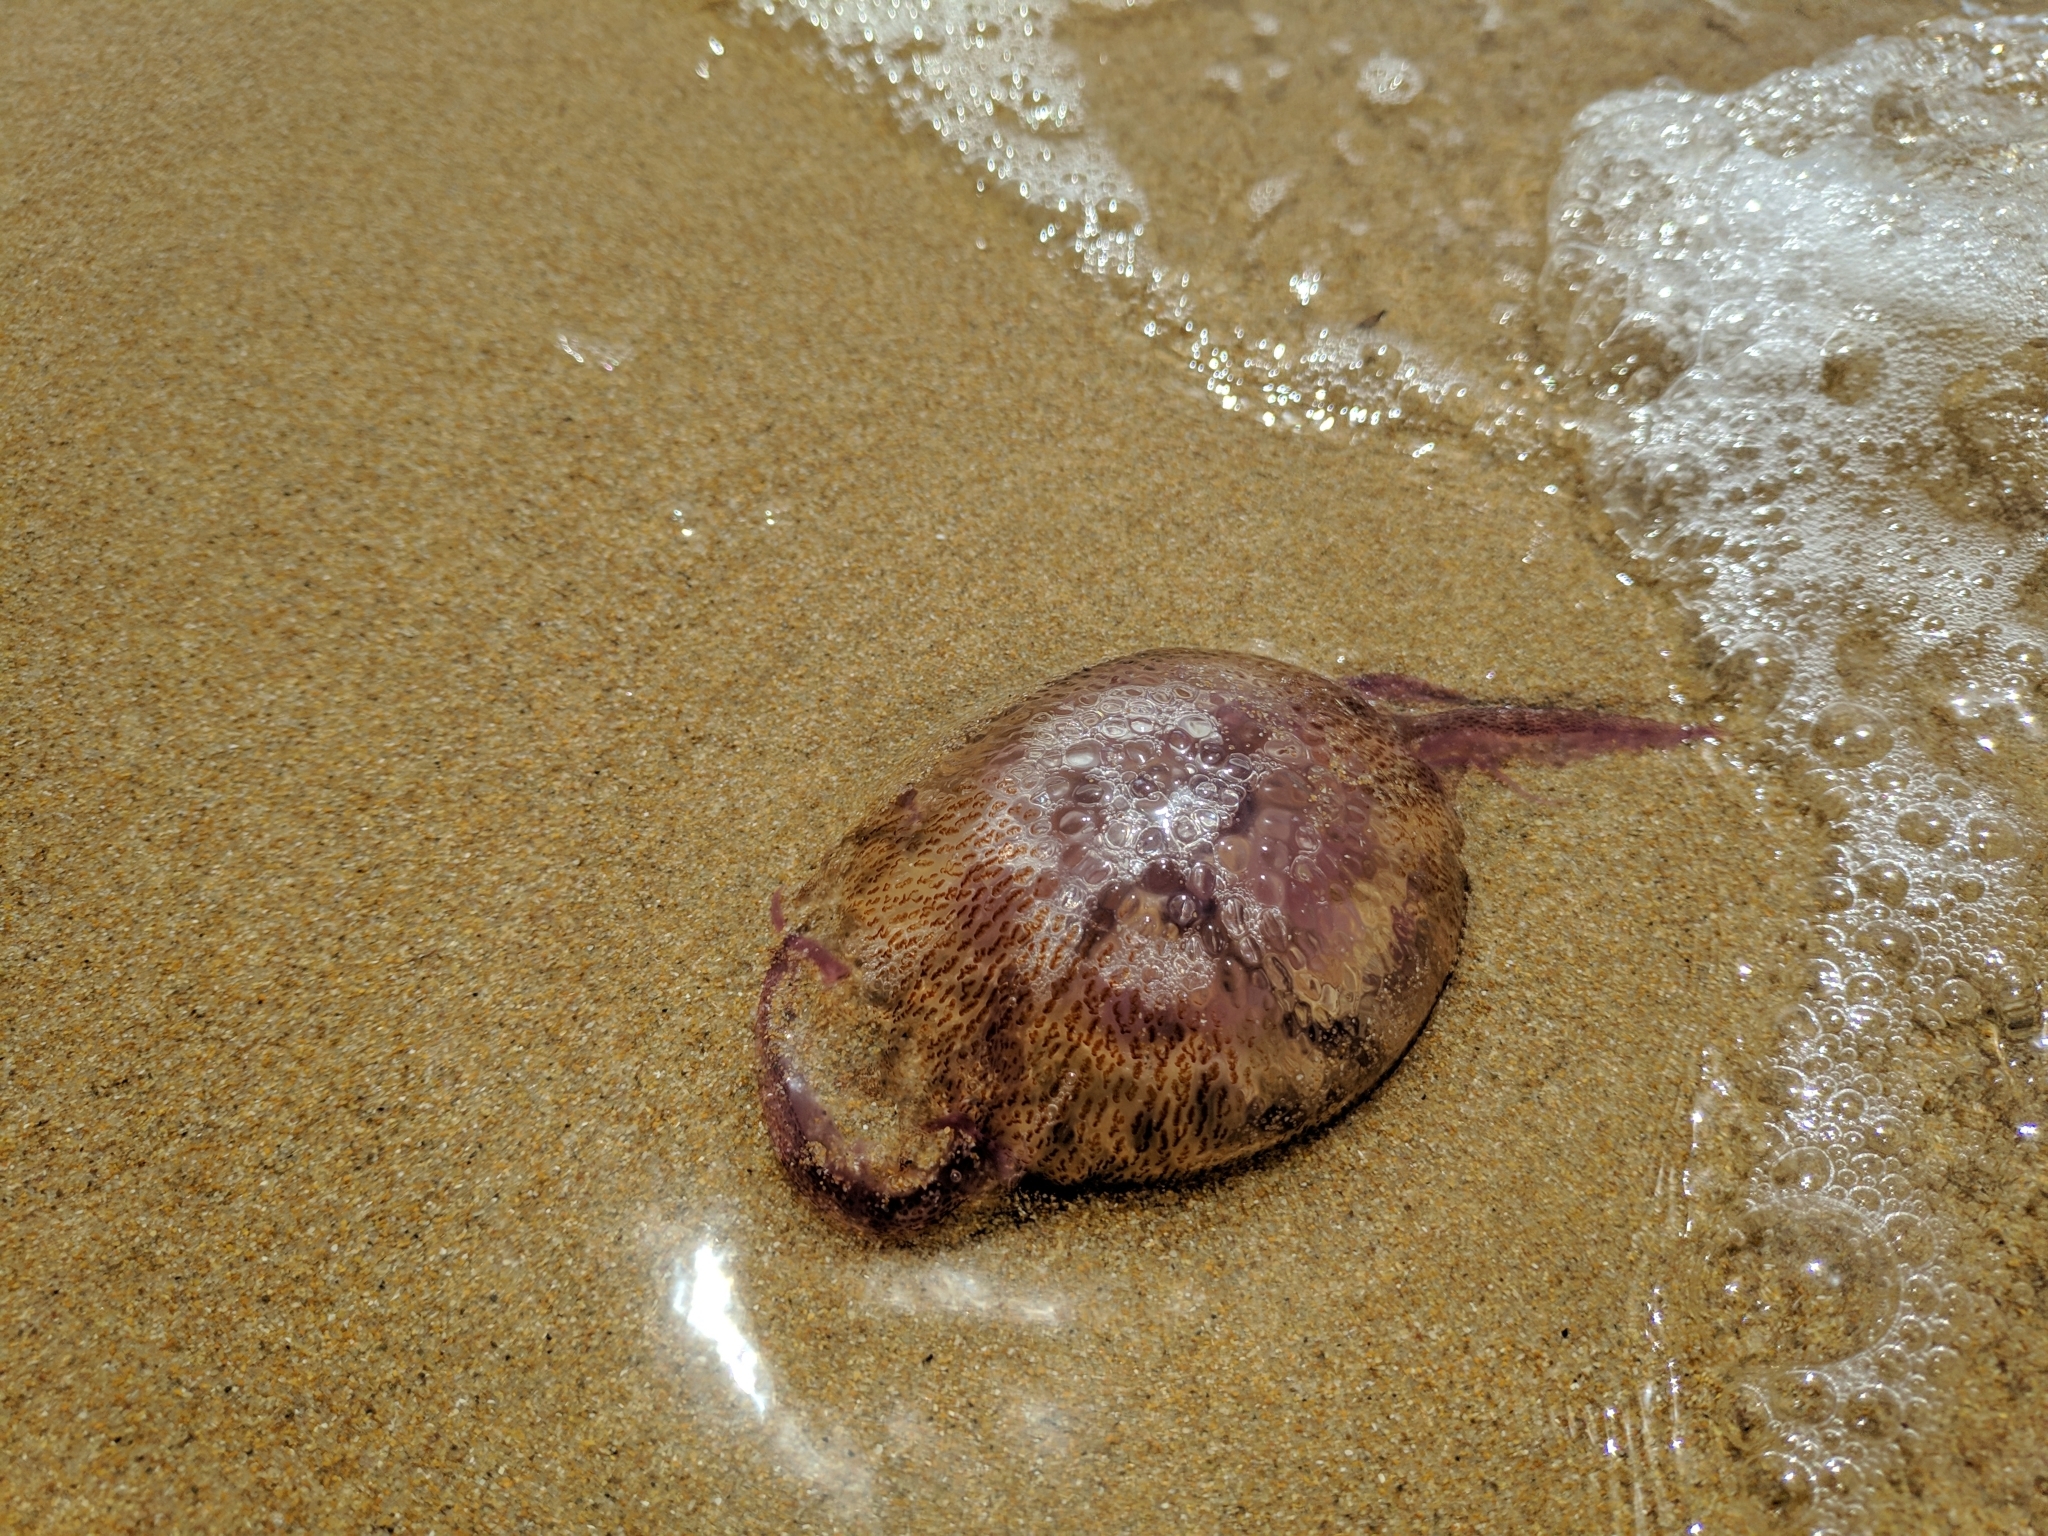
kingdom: Animalia
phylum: Cnidaria
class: Scyphozoa
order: Semaeostomeae
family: Pelagiidae
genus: Pelagia
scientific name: Pelagia noctiluca
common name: Mauve stinger
